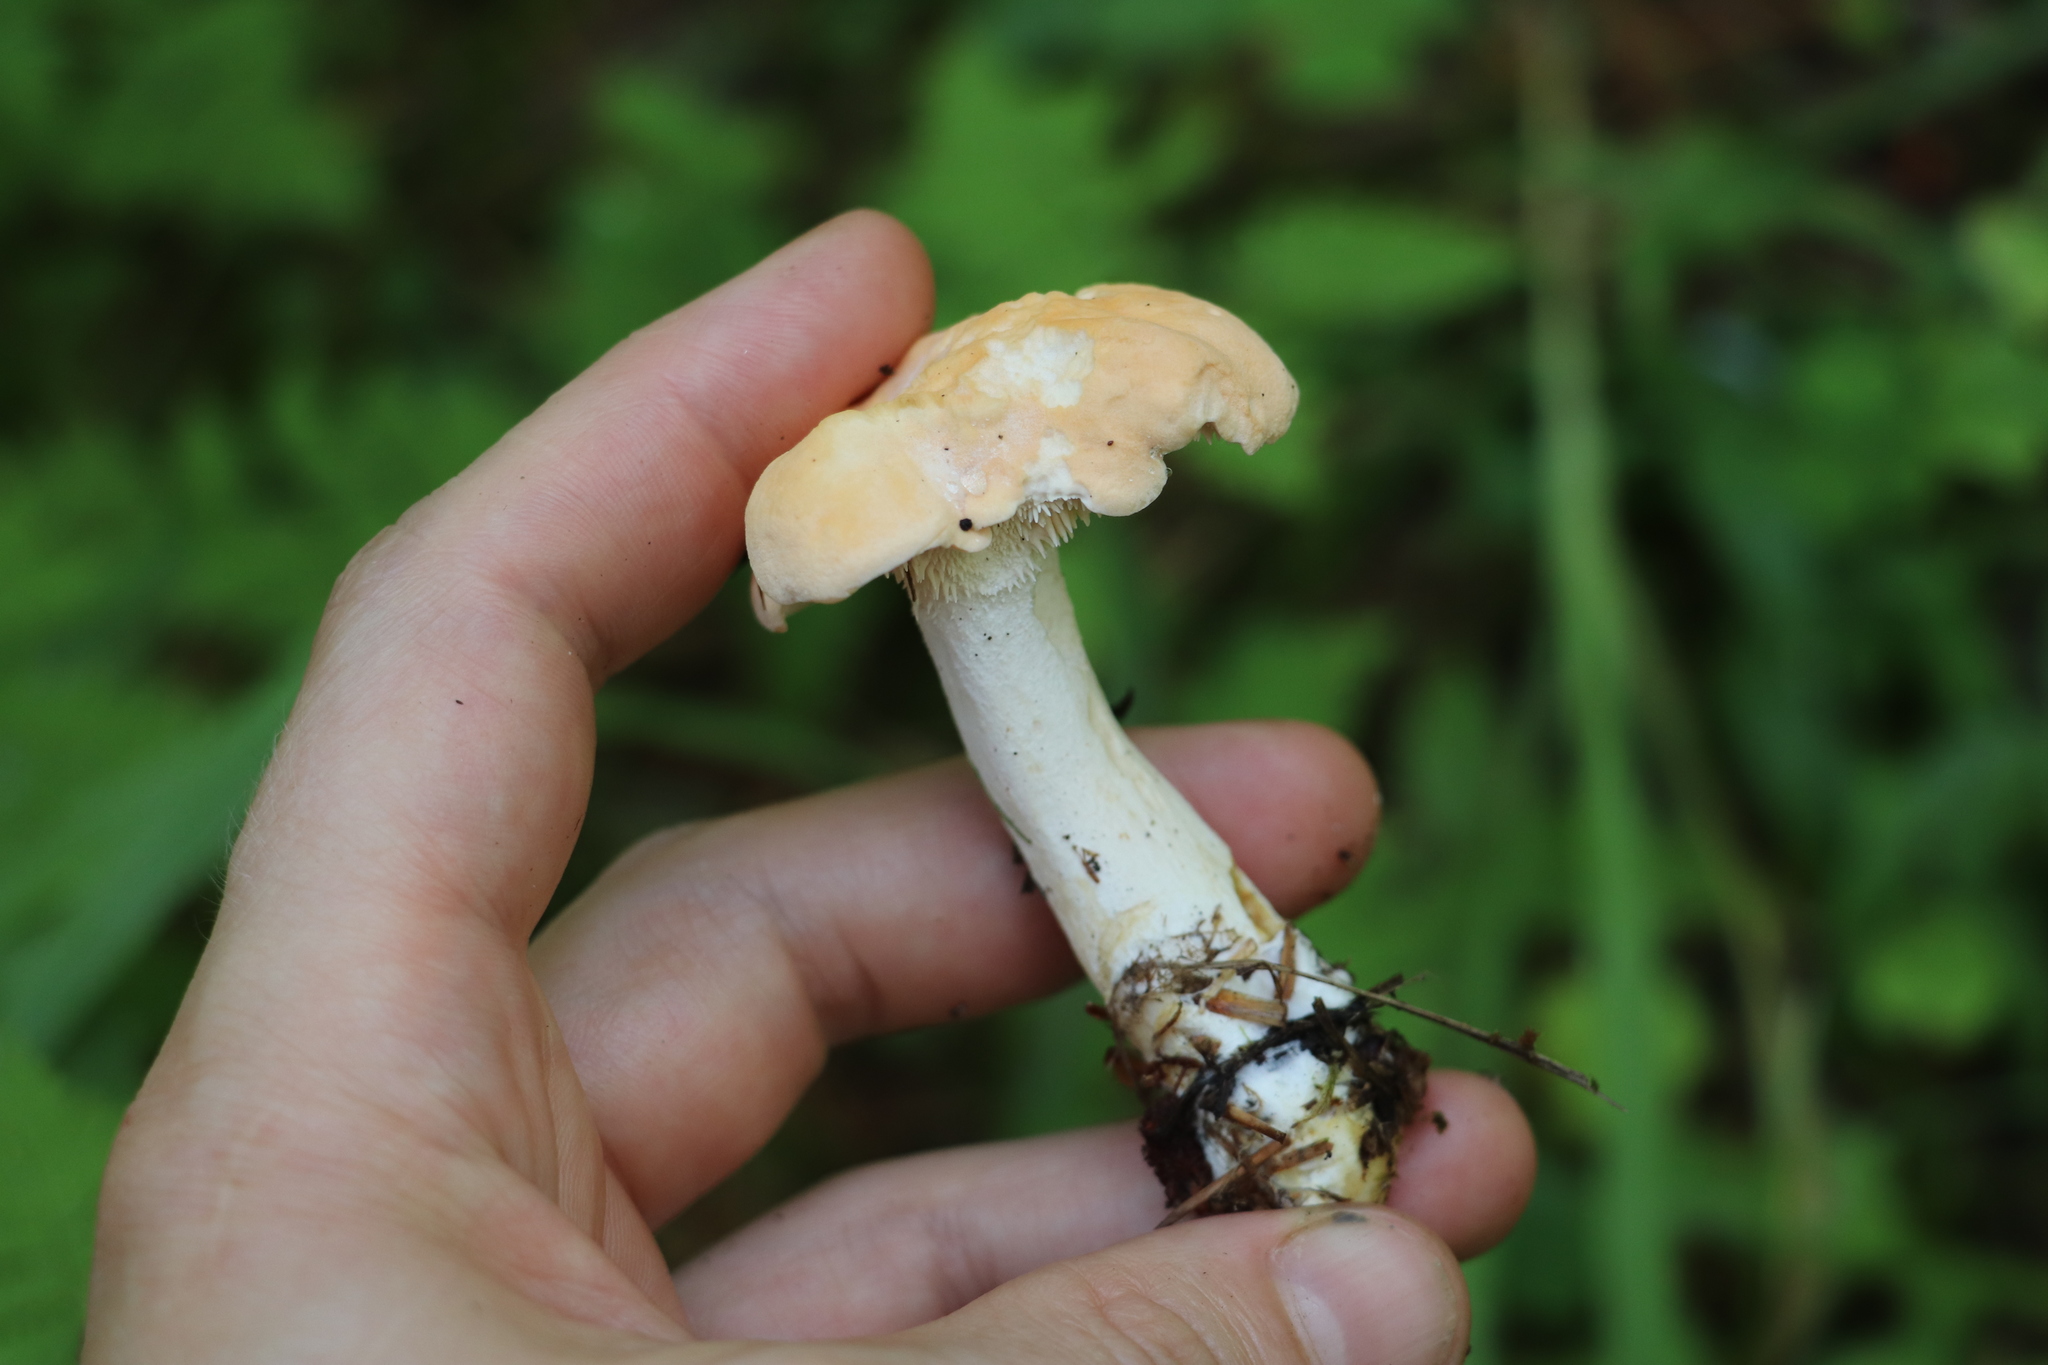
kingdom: Fungi
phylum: Basidiomycota
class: Agaricomycetes
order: Cantharellales
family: Hydnaceae
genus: Hydnum
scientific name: Hydnum repandum
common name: Wood hedgehog
